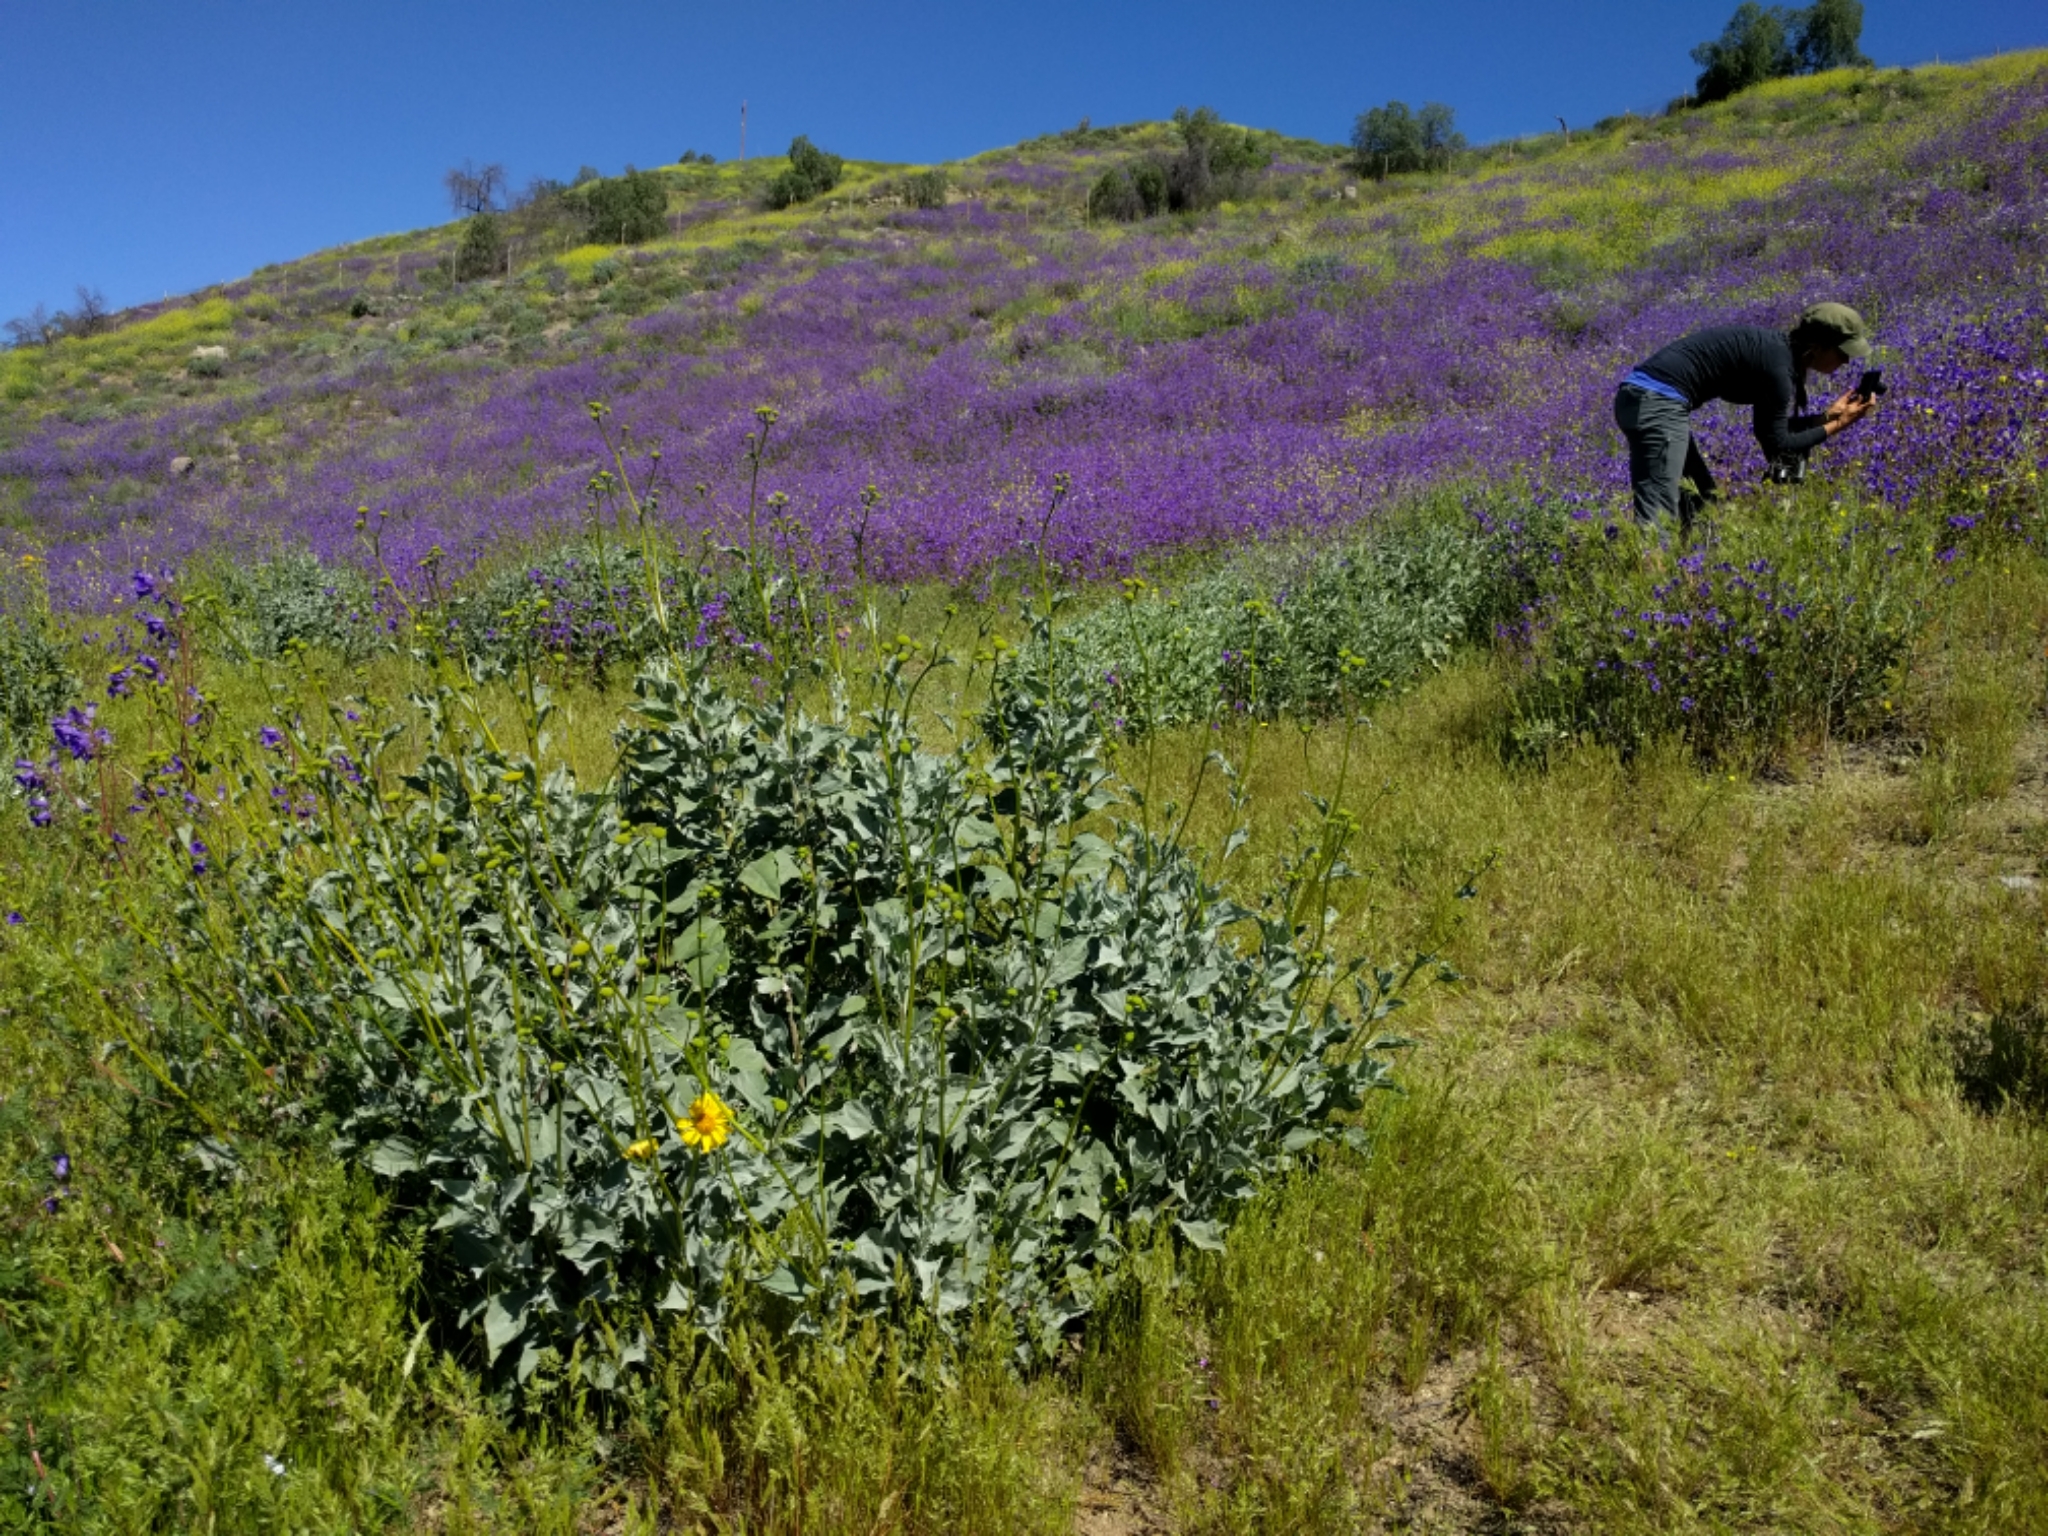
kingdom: Plantae
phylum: Tracheophyta
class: Magnoliopsida
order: Asterales
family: Asteraceae
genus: Encelia
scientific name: Encelia farinosa
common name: Brittlebush
